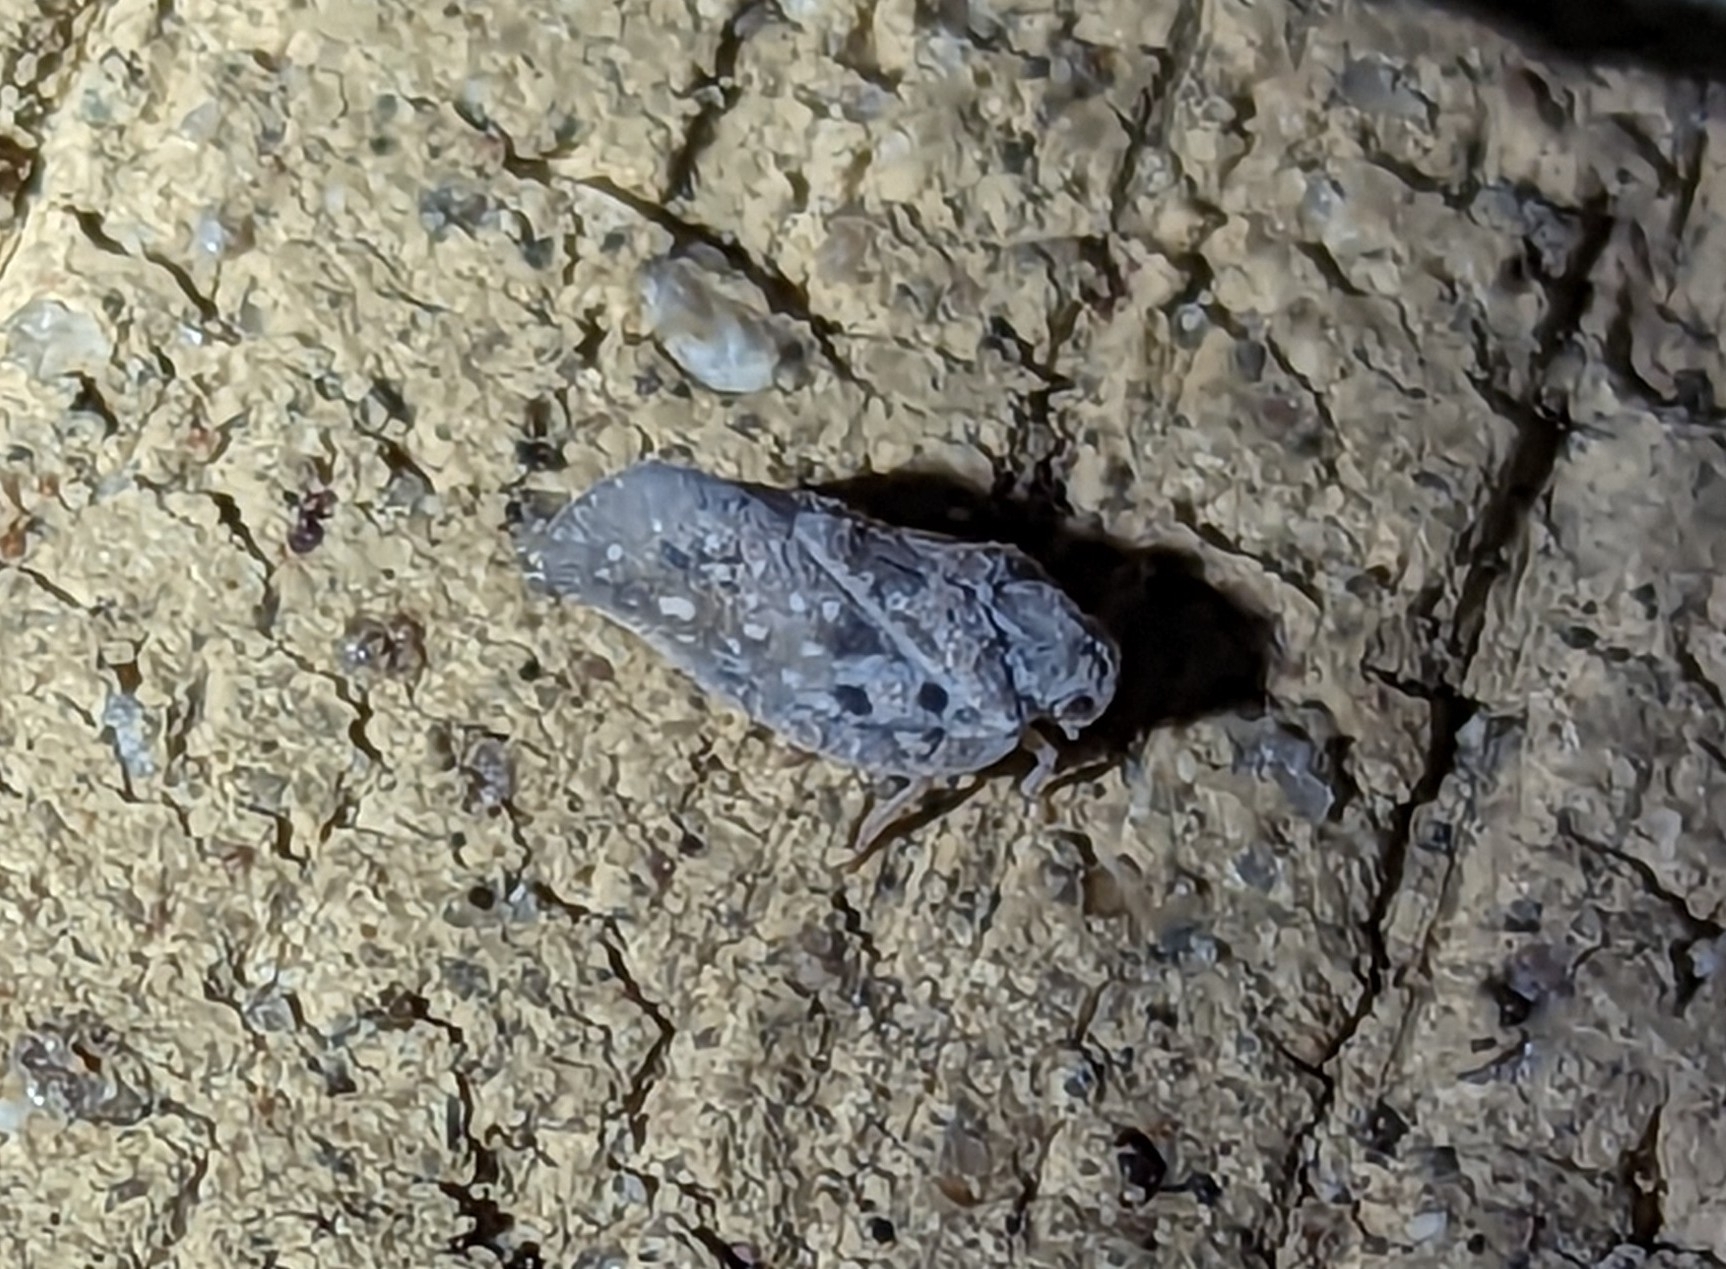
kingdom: Animalia
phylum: Arthropoda
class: Insecta
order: Hemiptera
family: Flatidae
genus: Metcalfa
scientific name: Metcalfa pruinosa
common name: Citrus flatid planthopper
